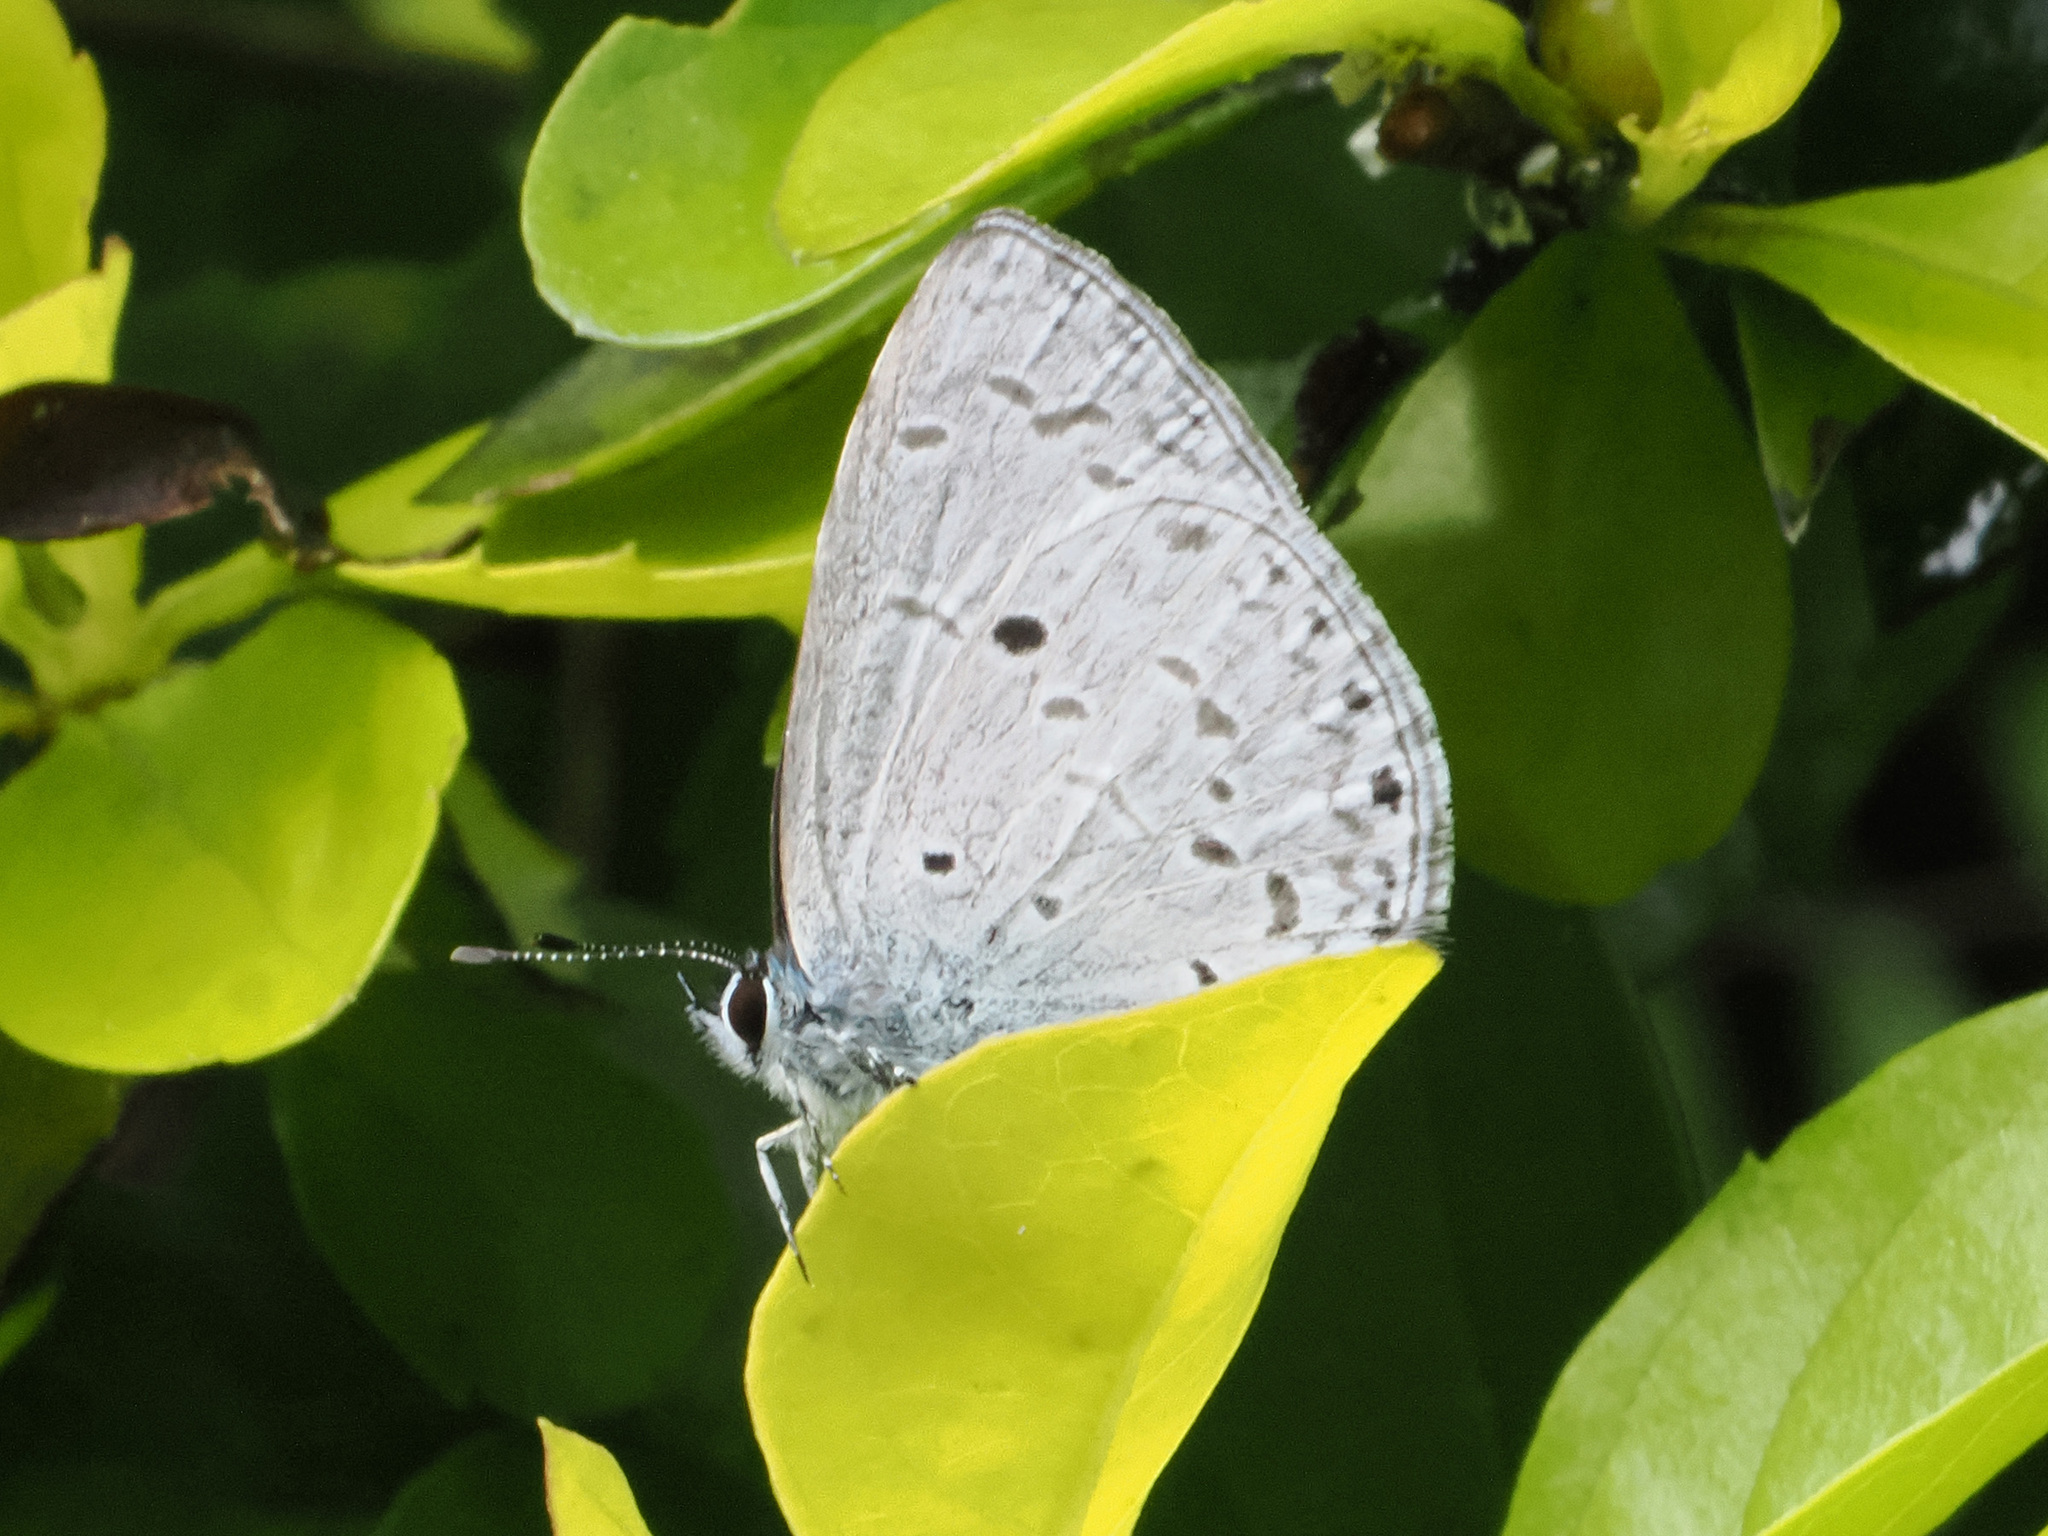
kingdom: Animalia
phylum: Arthropoda
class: Insecta
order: Lepidoptera
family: Lycaenidae
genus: Celastrina
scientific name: Celastrina lavendularis
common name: Plain hedge blue
